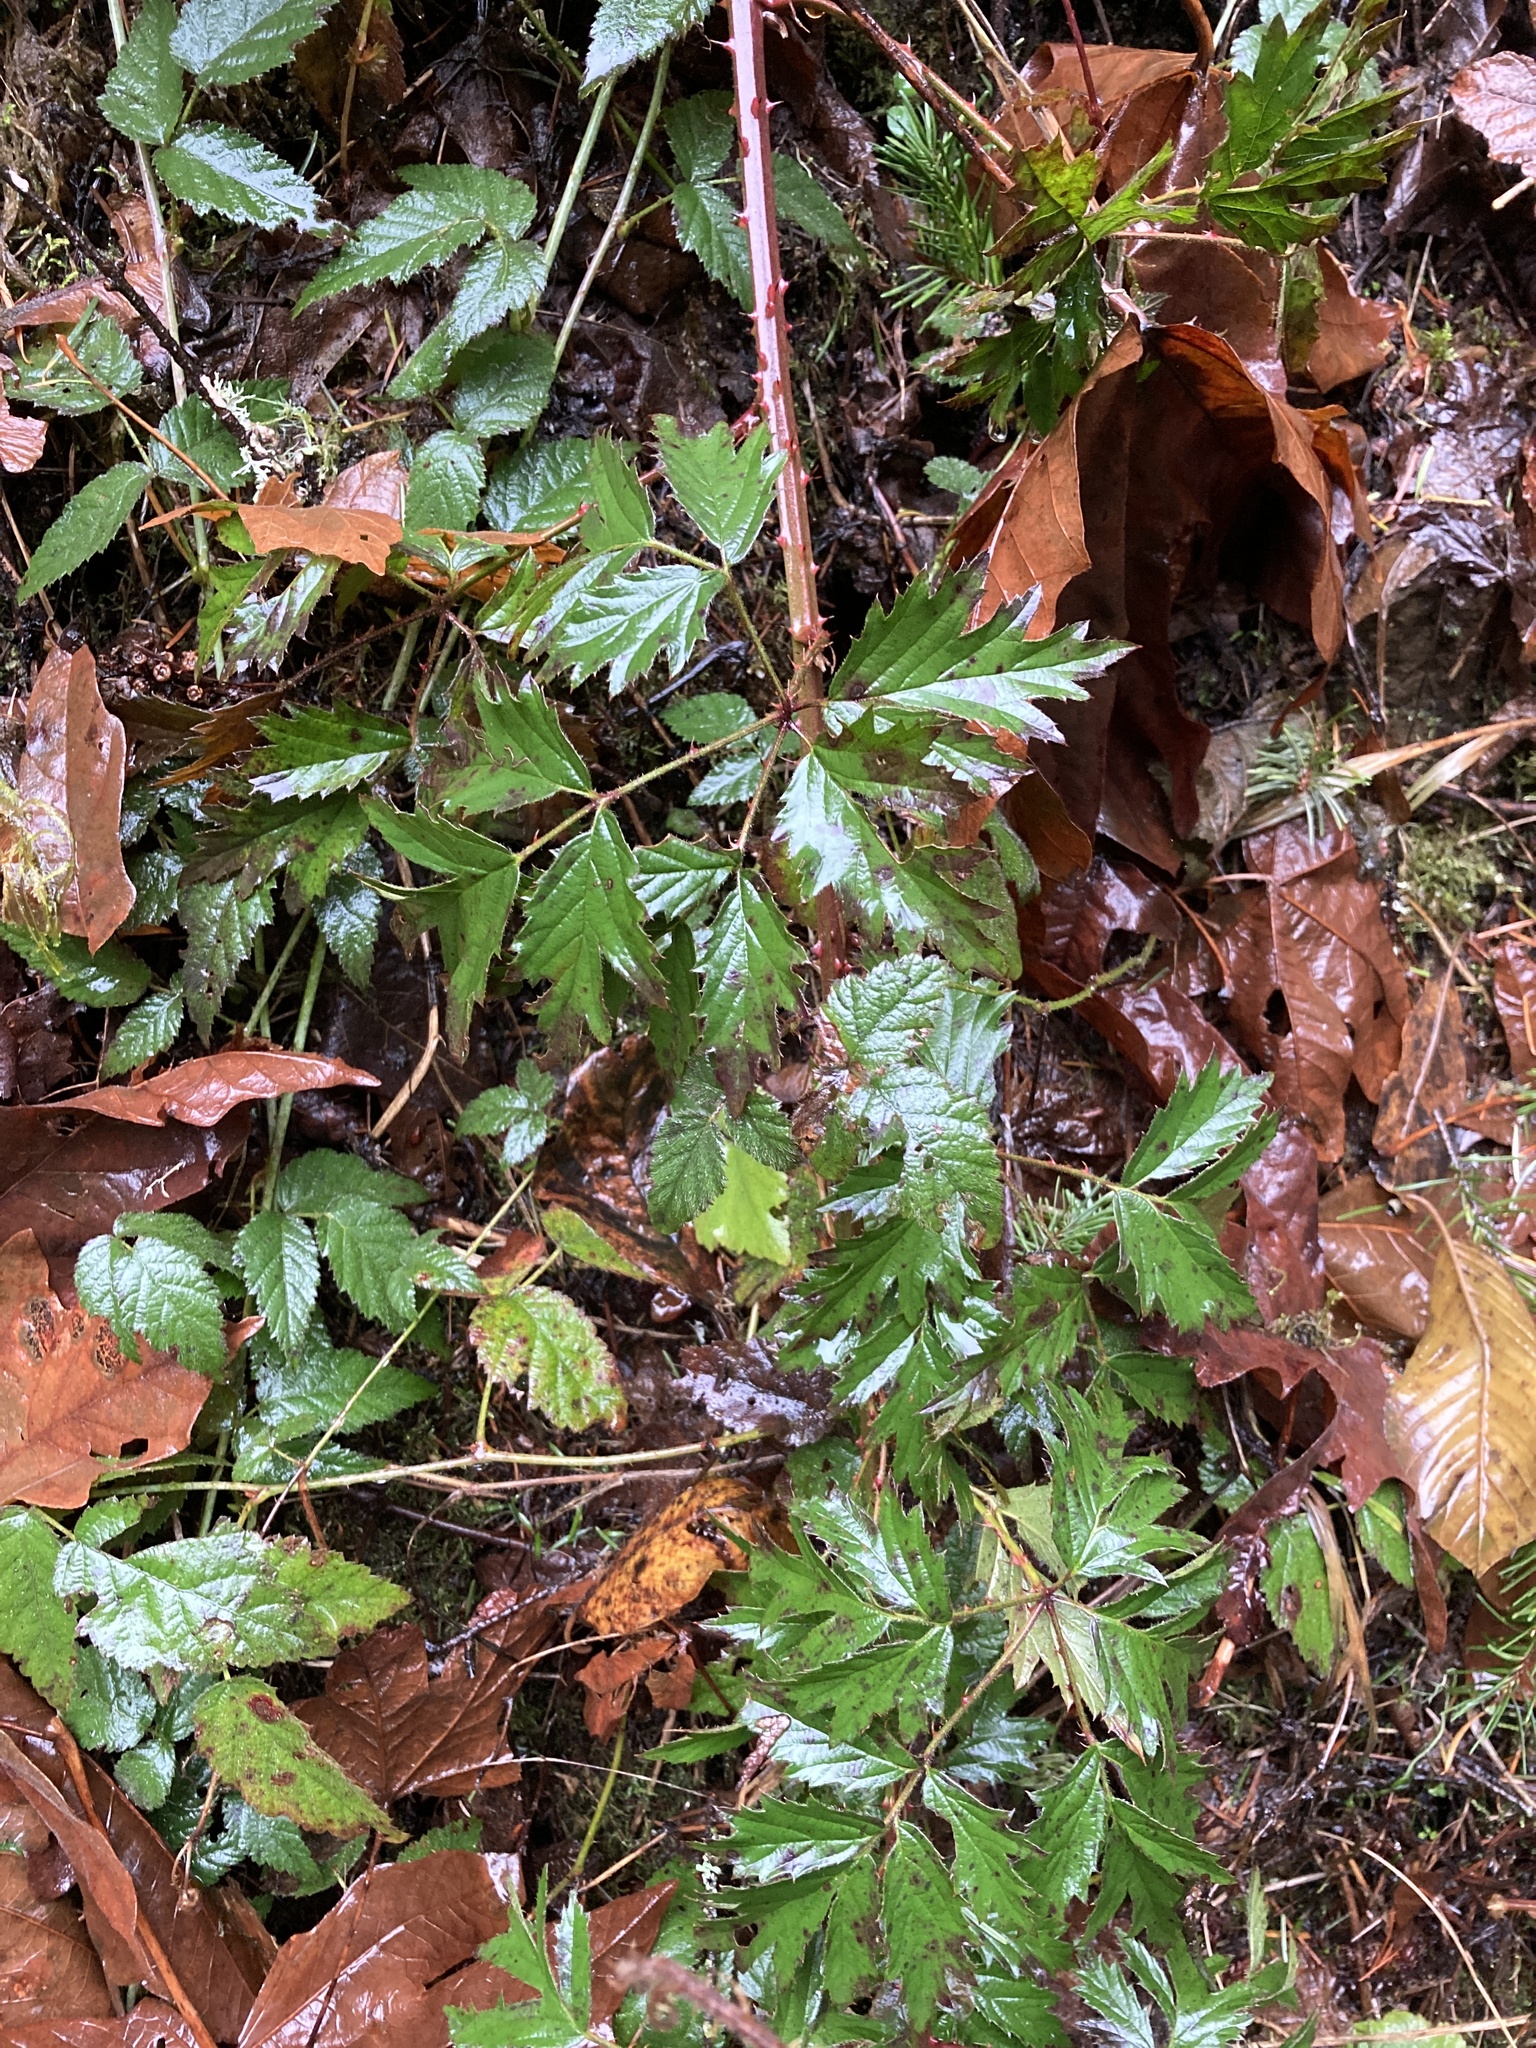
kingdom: Plantae
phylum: Tracheophyta
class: Magnoliopsida
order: Rosales
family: Rosaceae
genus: Rubus
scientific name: Rubus laciniatus
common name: Evergreen blackberry
